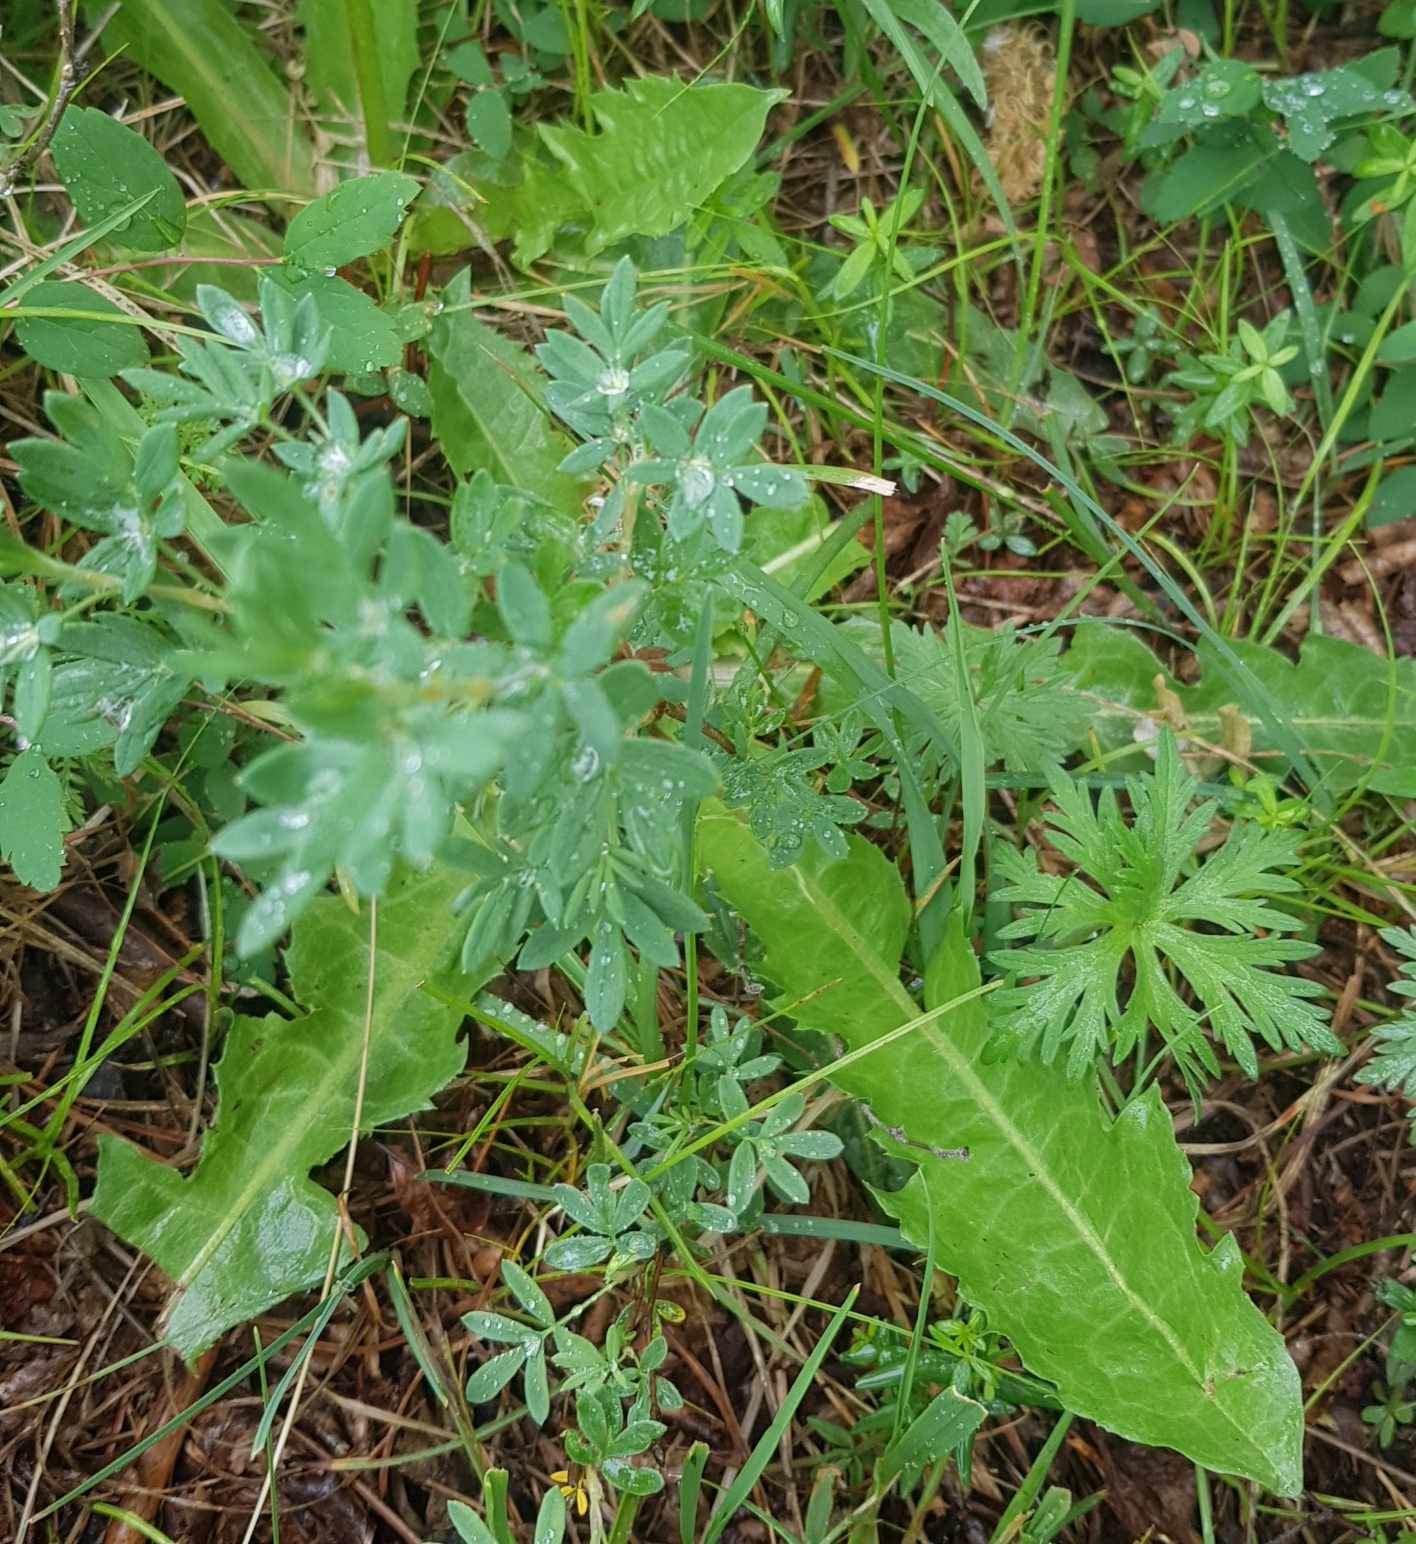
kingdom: Plantae
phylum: Tracheophyta
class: Magnoliopsida
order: Asterales
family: Asteraceae
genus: Sonchus
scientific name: Sonchus arvensis
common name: Perennial sow-thistle
